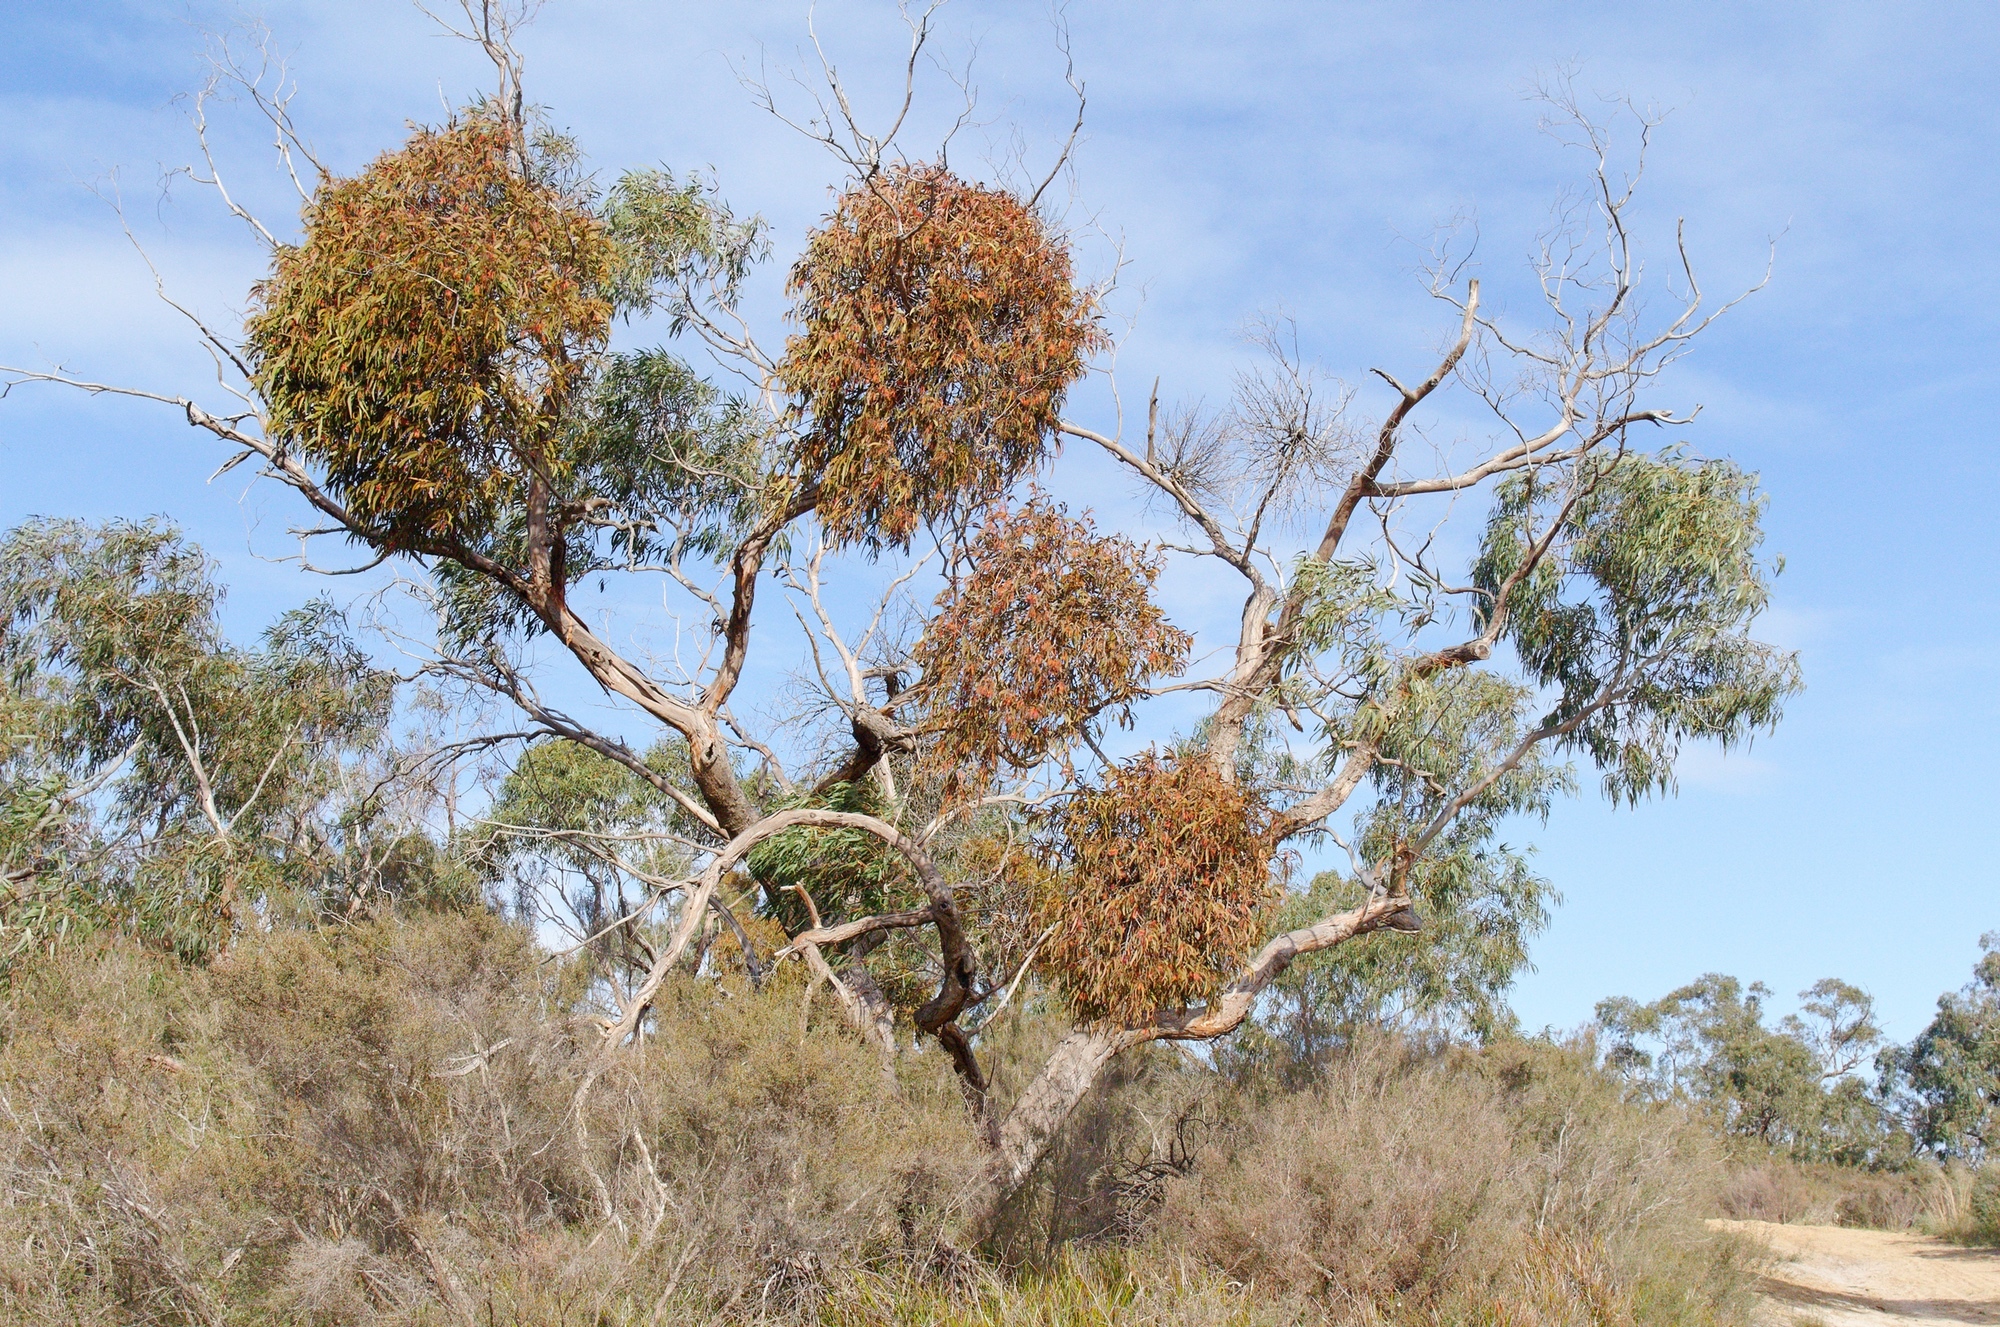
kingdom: Plantae
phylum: Tracheophyta
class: Magnoliopsida
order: Santalales
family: Loranthaceae
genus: Amyema
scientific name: Amyema pendula
